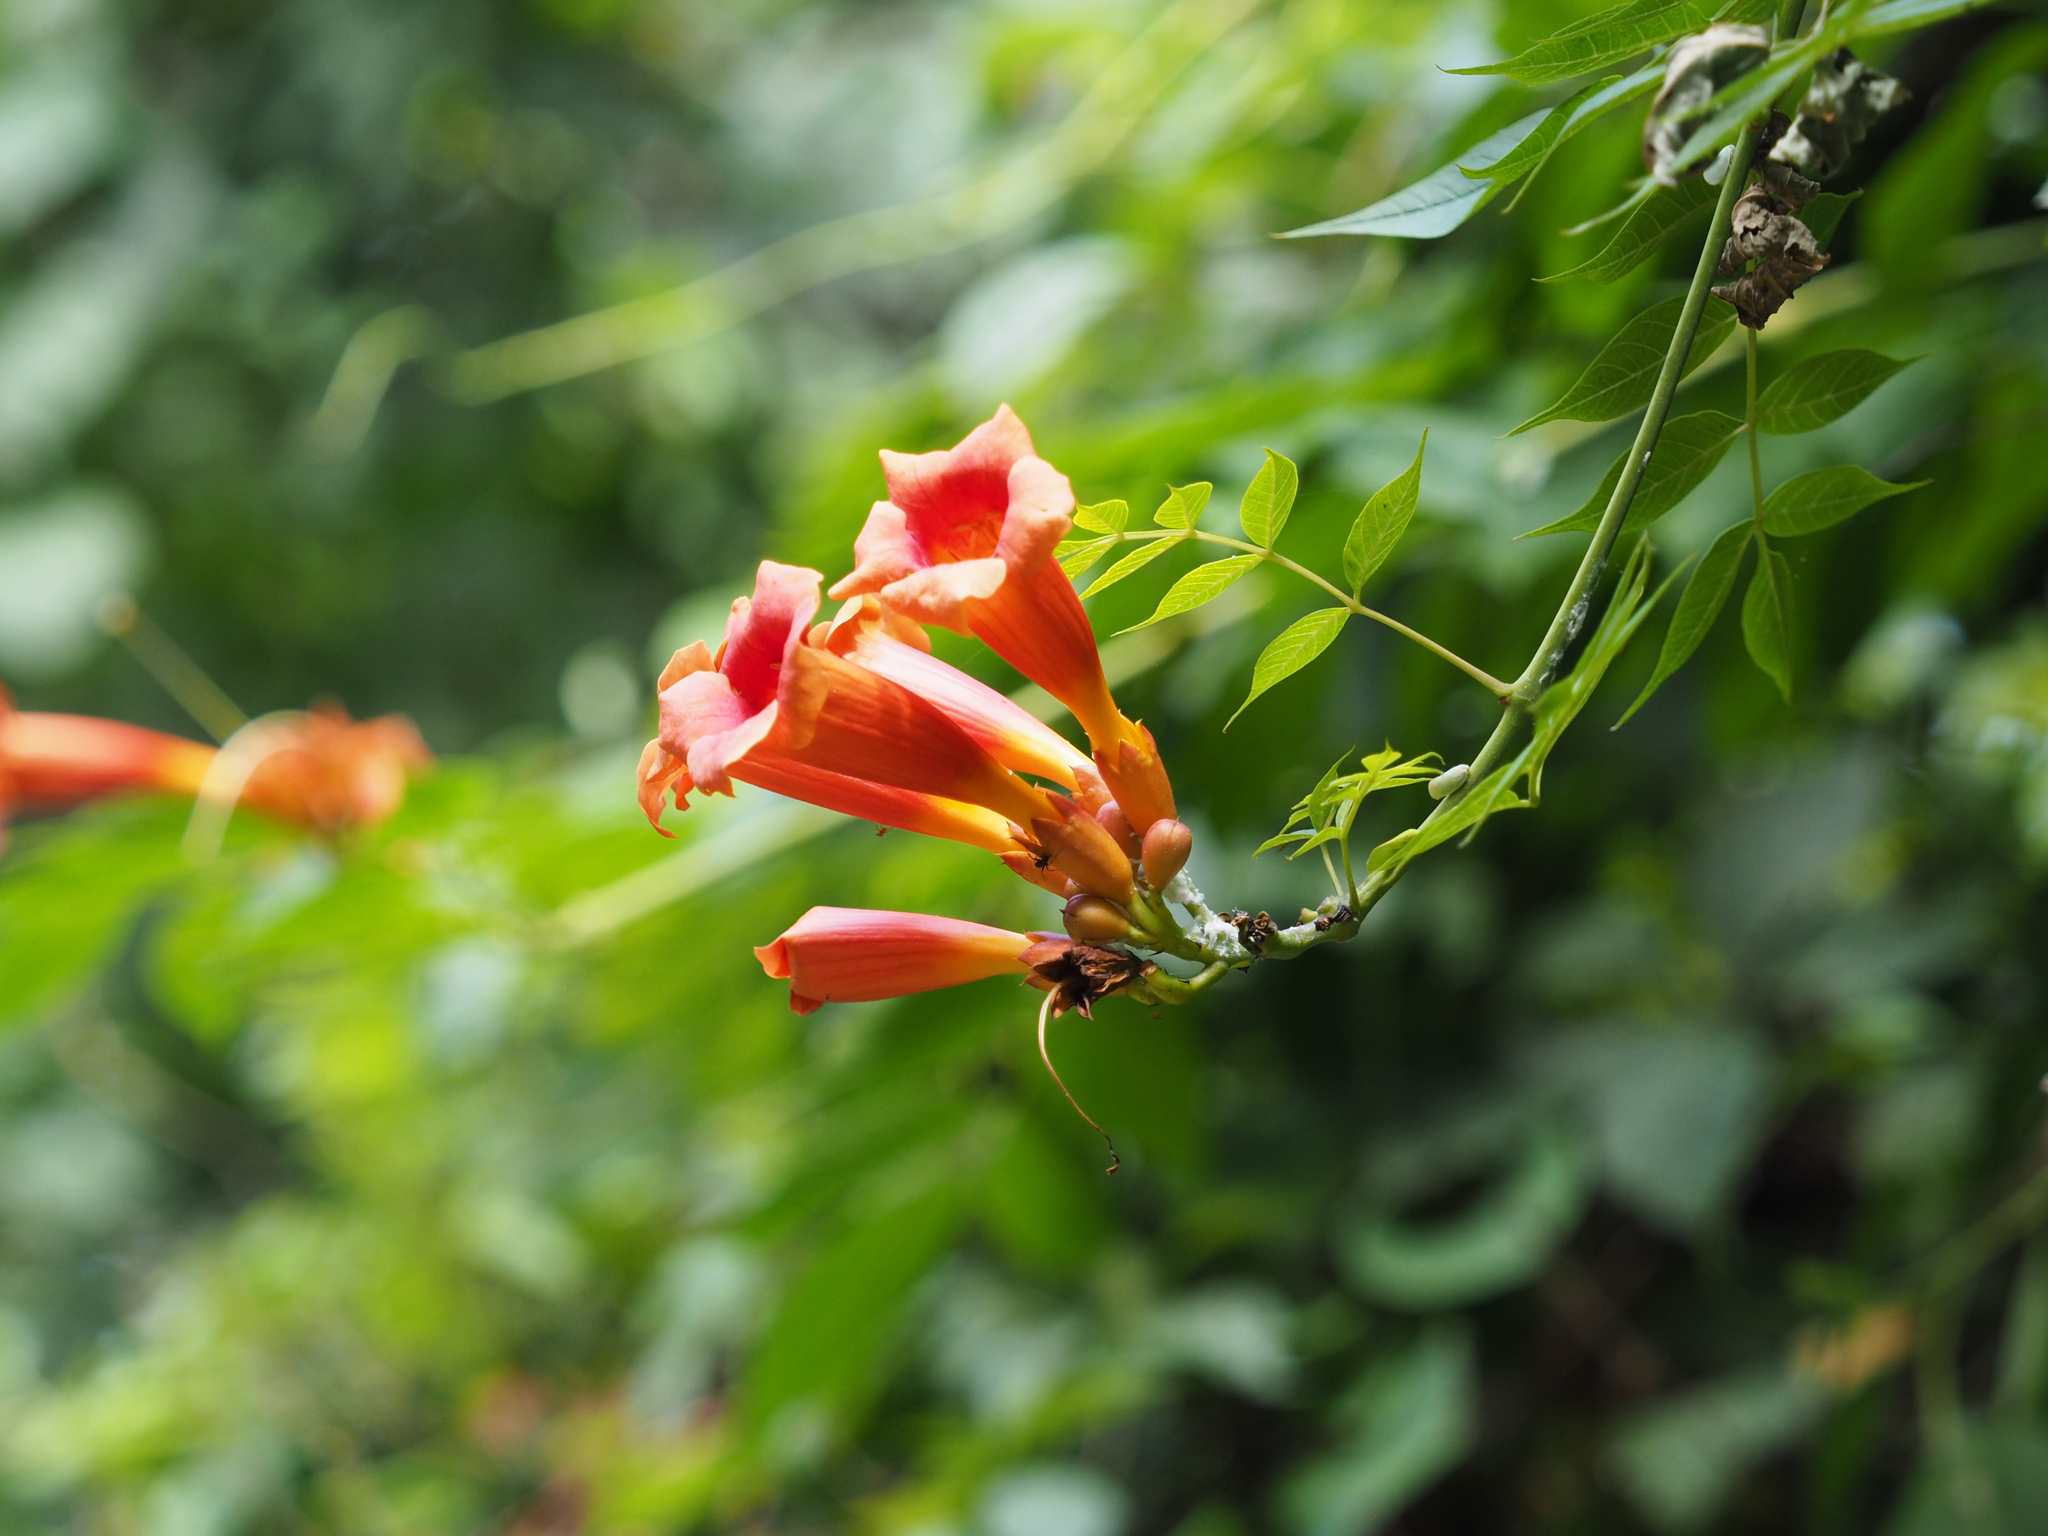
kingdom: Plantae
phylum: Tracheophyta
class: Magnoliopsida
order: Lamiales
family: Bignoniaceae
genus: Campsis
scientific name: Campsis radicans
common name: Trumpet-creeper
